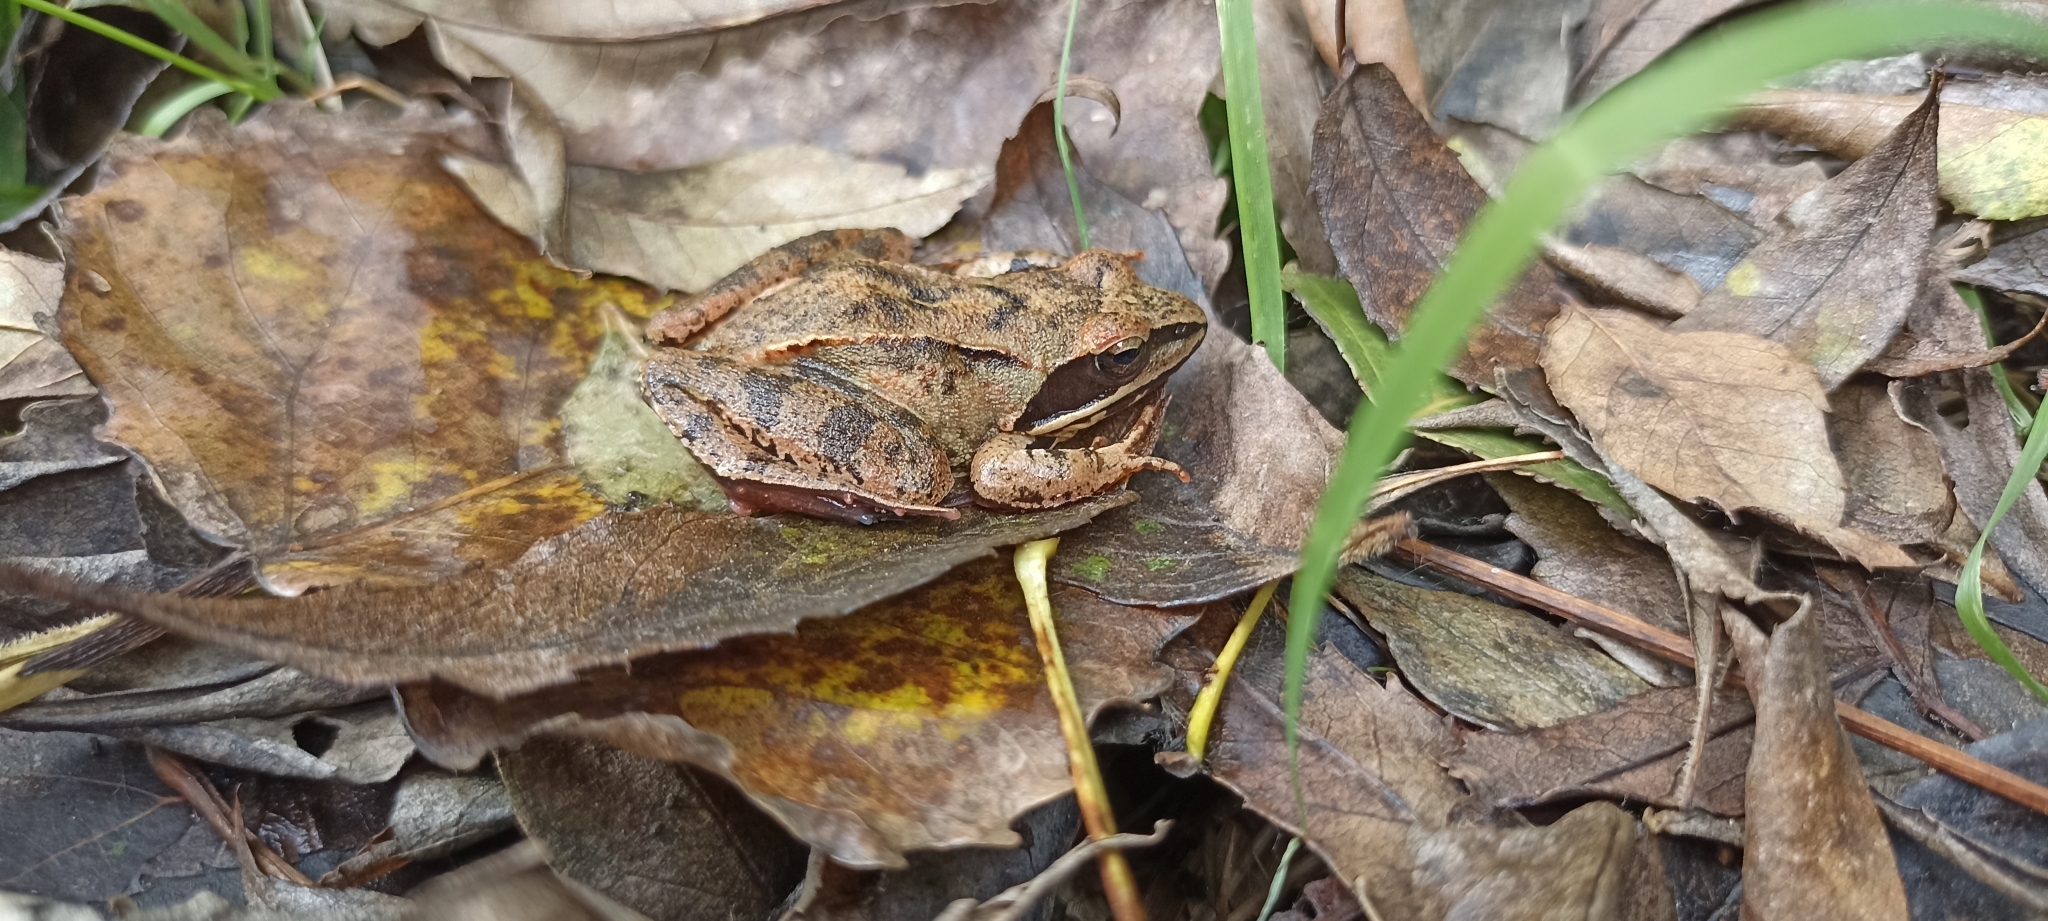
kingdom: Animalia
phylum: Chordata
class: Amphibia
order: Anura
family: Ranidae
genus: Rana
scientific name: Rana dalmatina
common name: Agile frog
